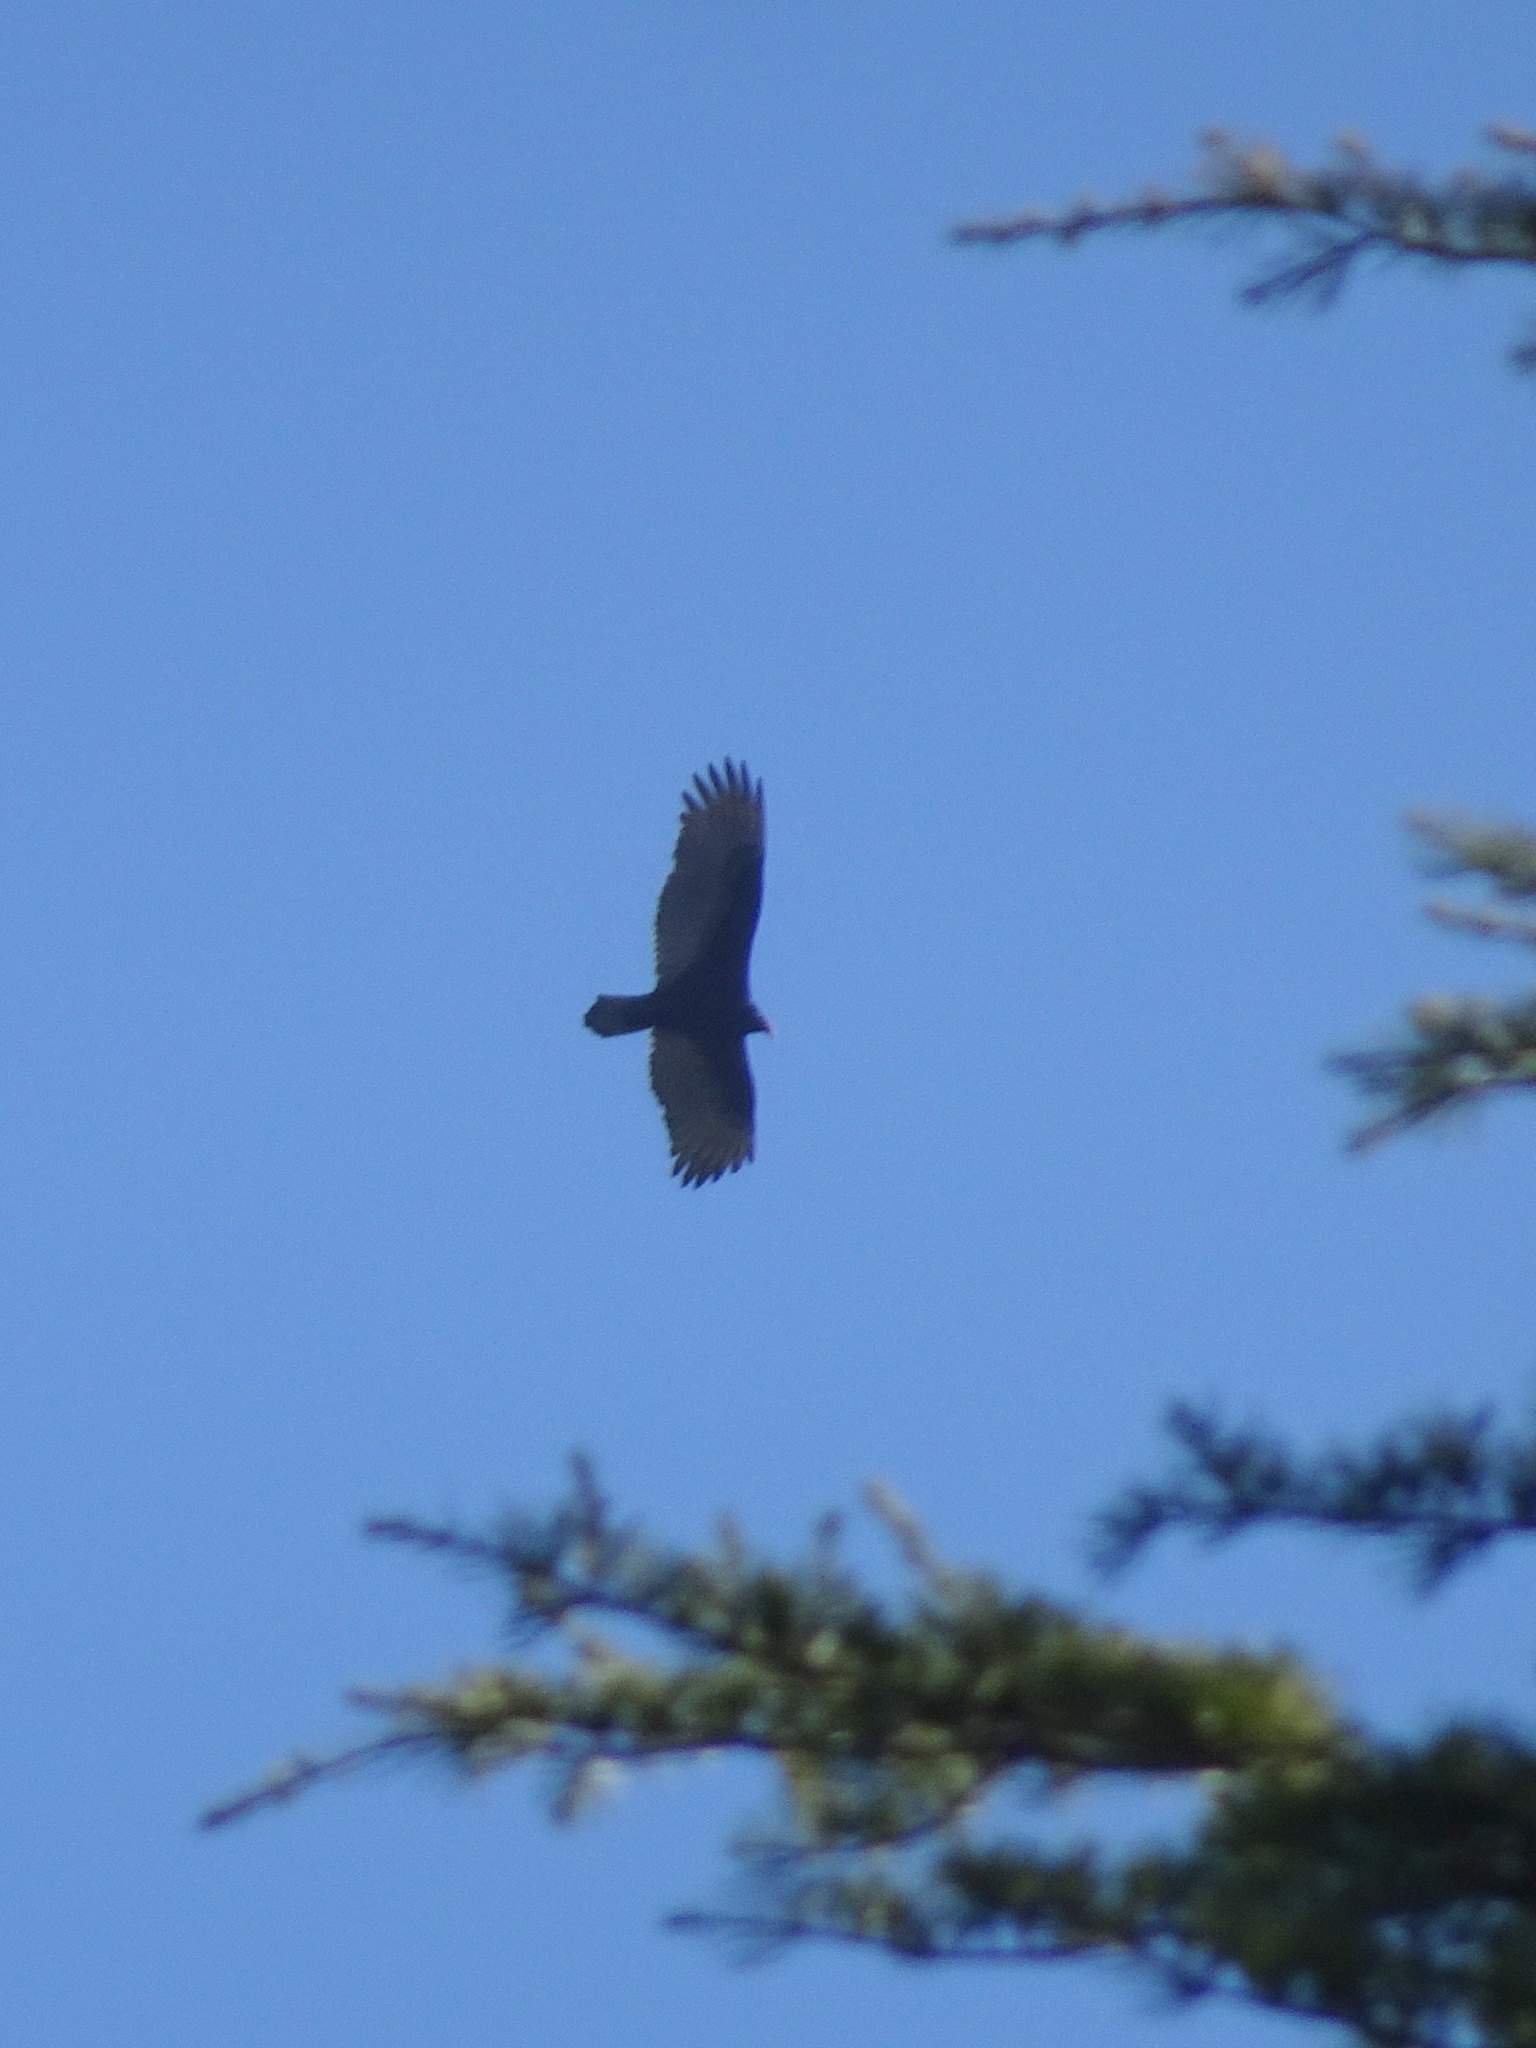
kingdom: Animalia
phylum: Chordata
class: Aves
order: Accipitriformes
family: Cathartidae
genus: Cathartes
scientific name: Cathartes aura
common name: Turkey vulture
